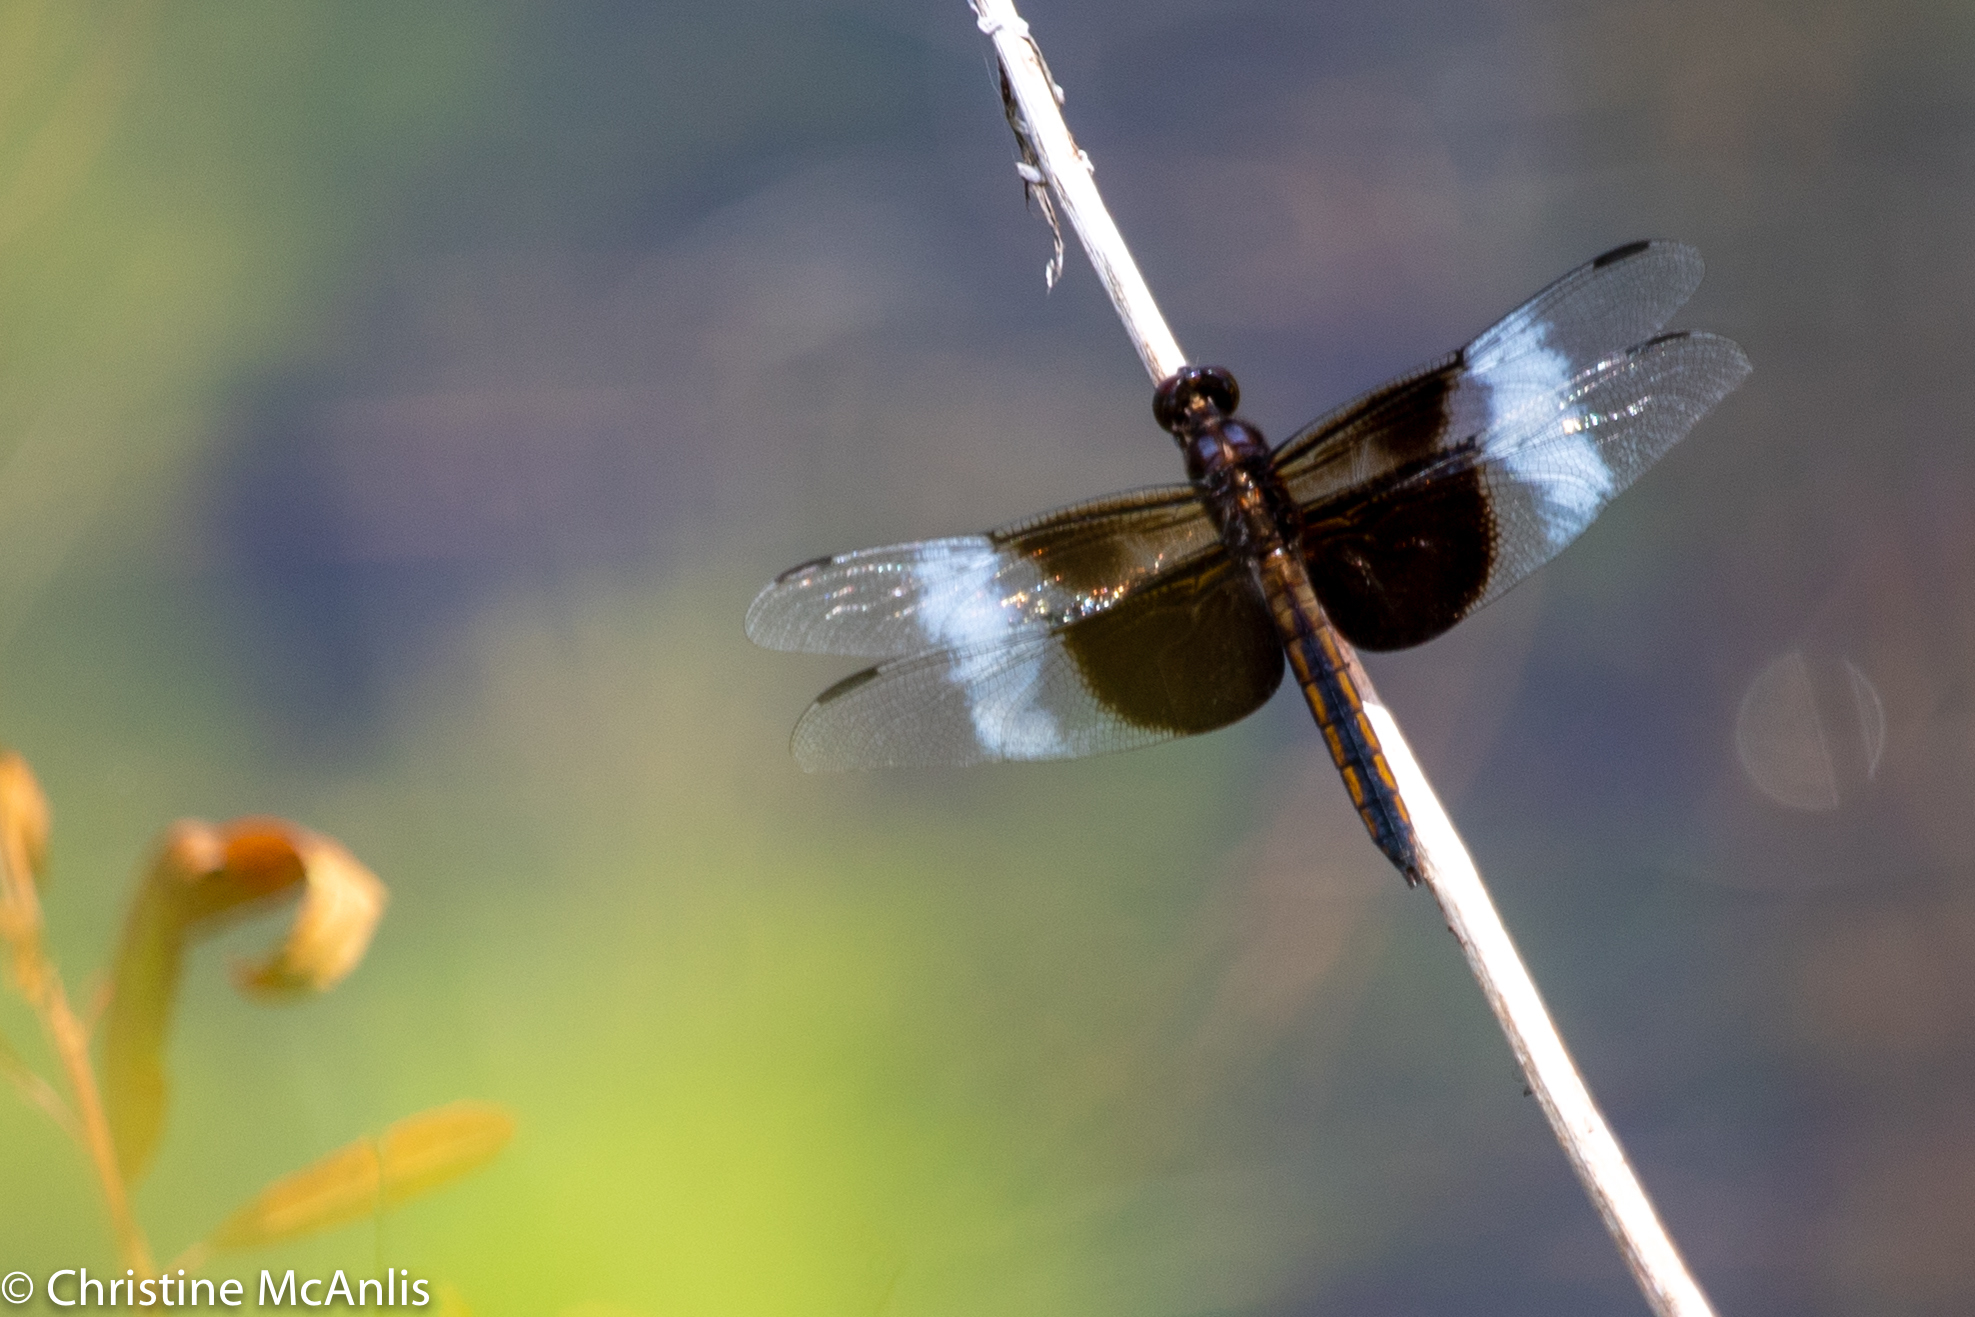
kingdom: Animalia
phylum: Arthropoda
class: Insecta
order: Odonata
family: Libellulidae
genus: Libellula
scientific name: Libellula luctuosa
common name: Widow skimmer
